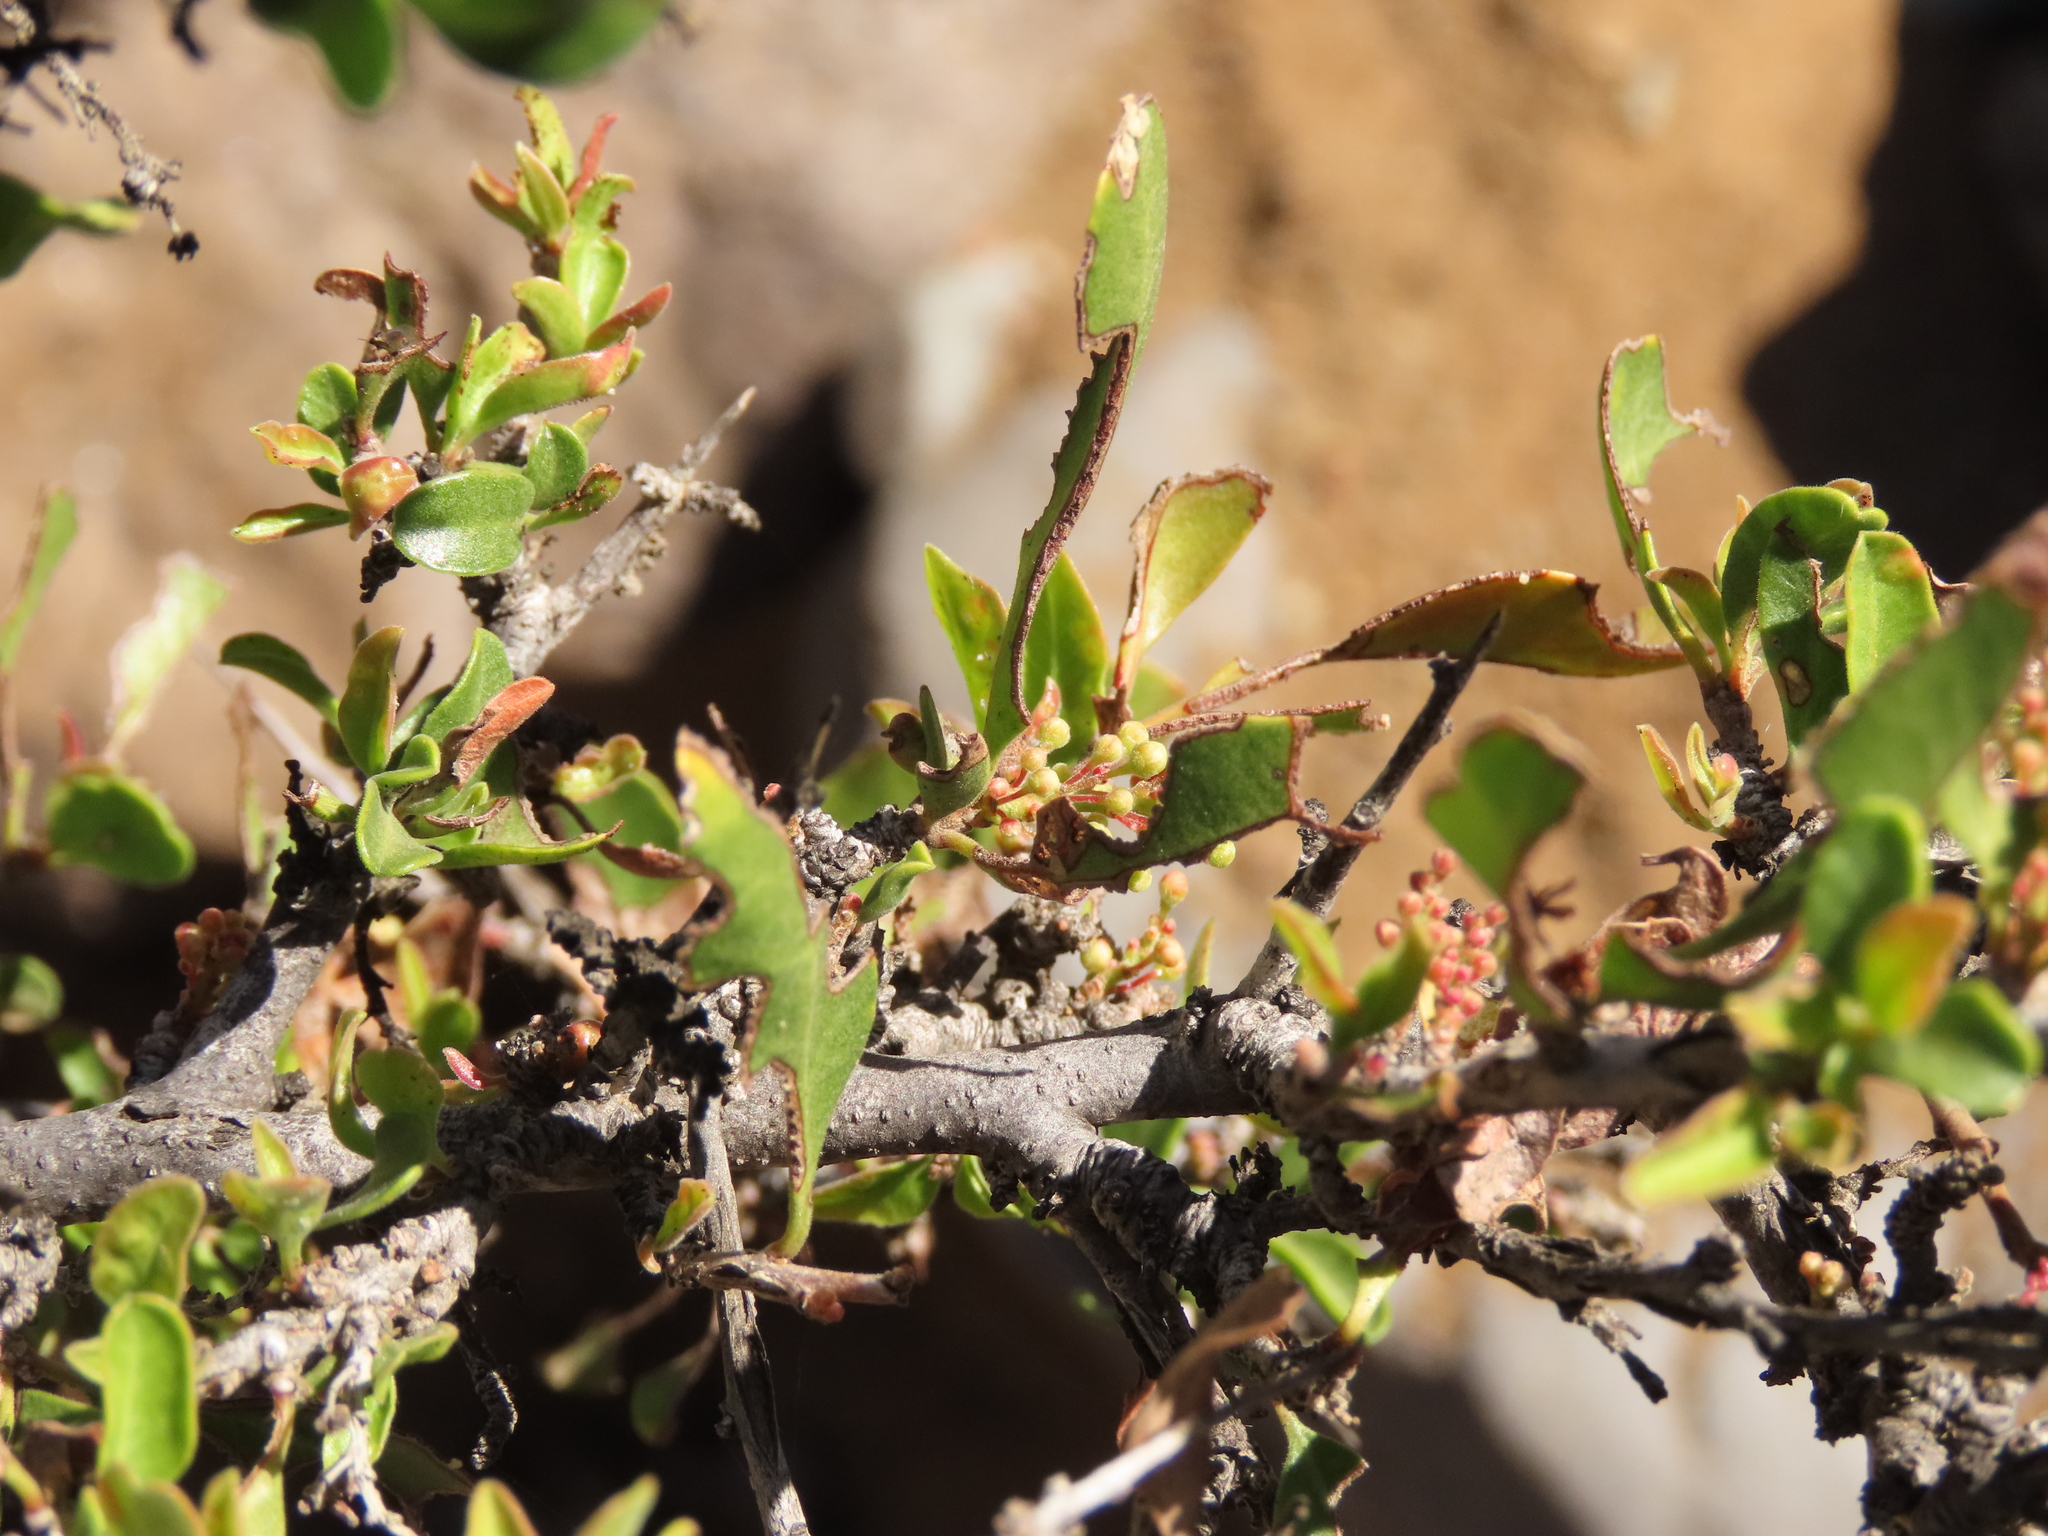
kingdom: Plantae
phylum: Tracheophyta
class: Magnoliopsida
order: Sapindales
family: Anacardiaceae
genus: Schinus
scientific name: Schinus polygama
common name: Hardee peppertree
